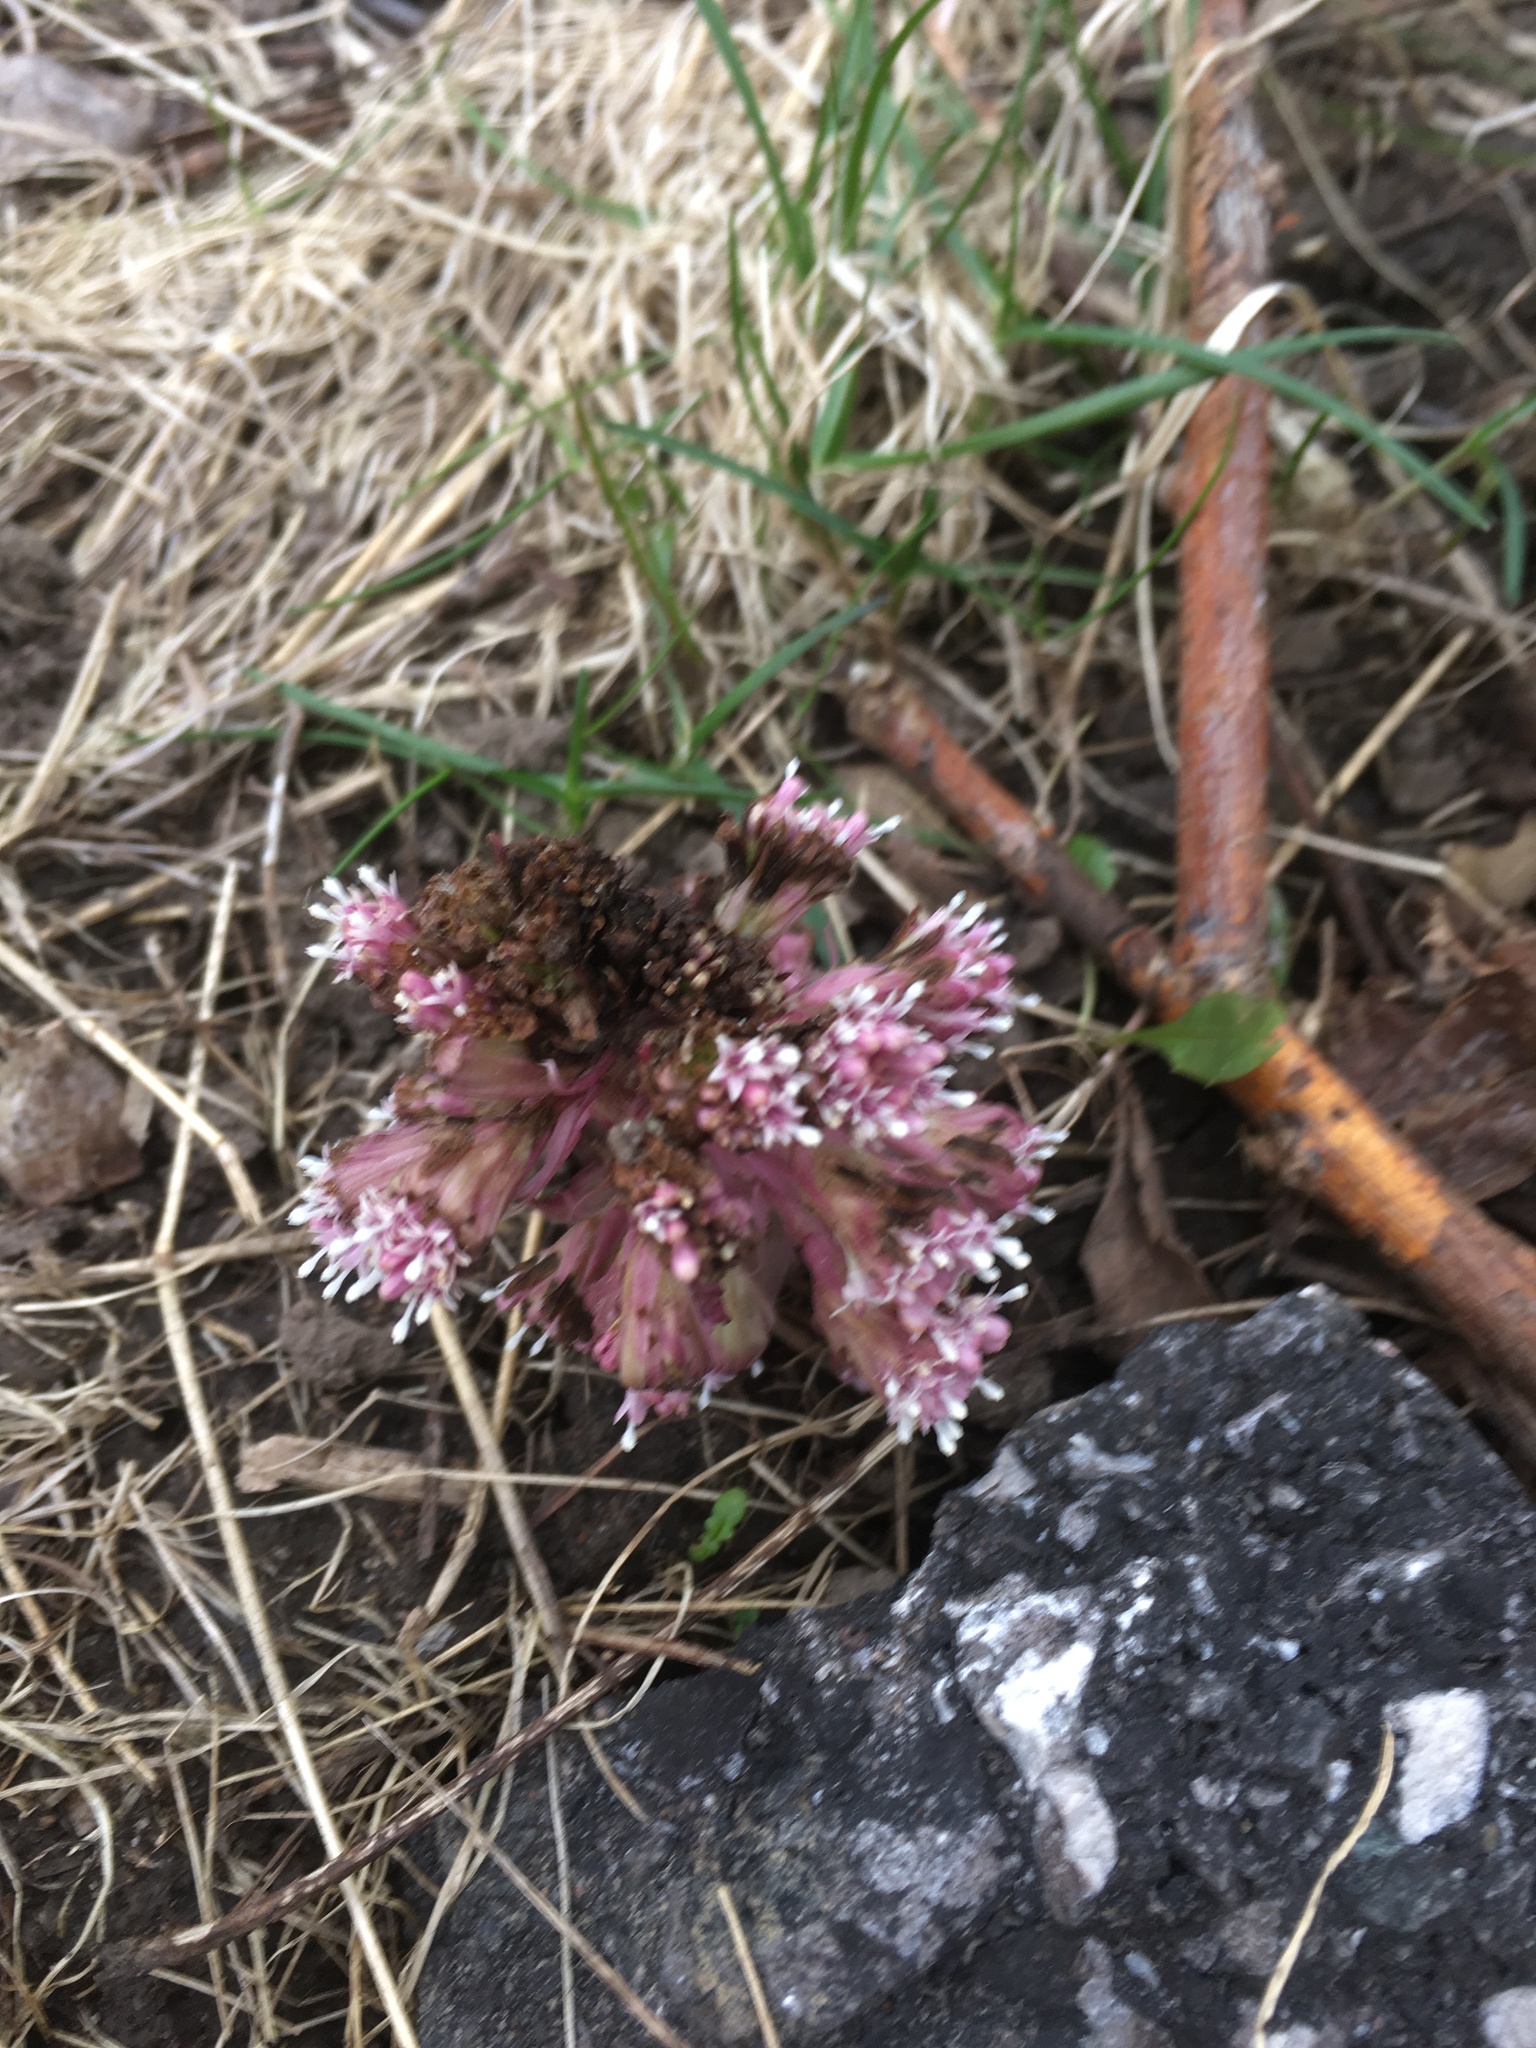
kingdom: Plantae
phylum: Tracheophyta
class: Magnoliopsida
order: Asterales
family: Asteraceae
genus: Petasites
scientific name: Petasites hybridus
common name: Butterbur
